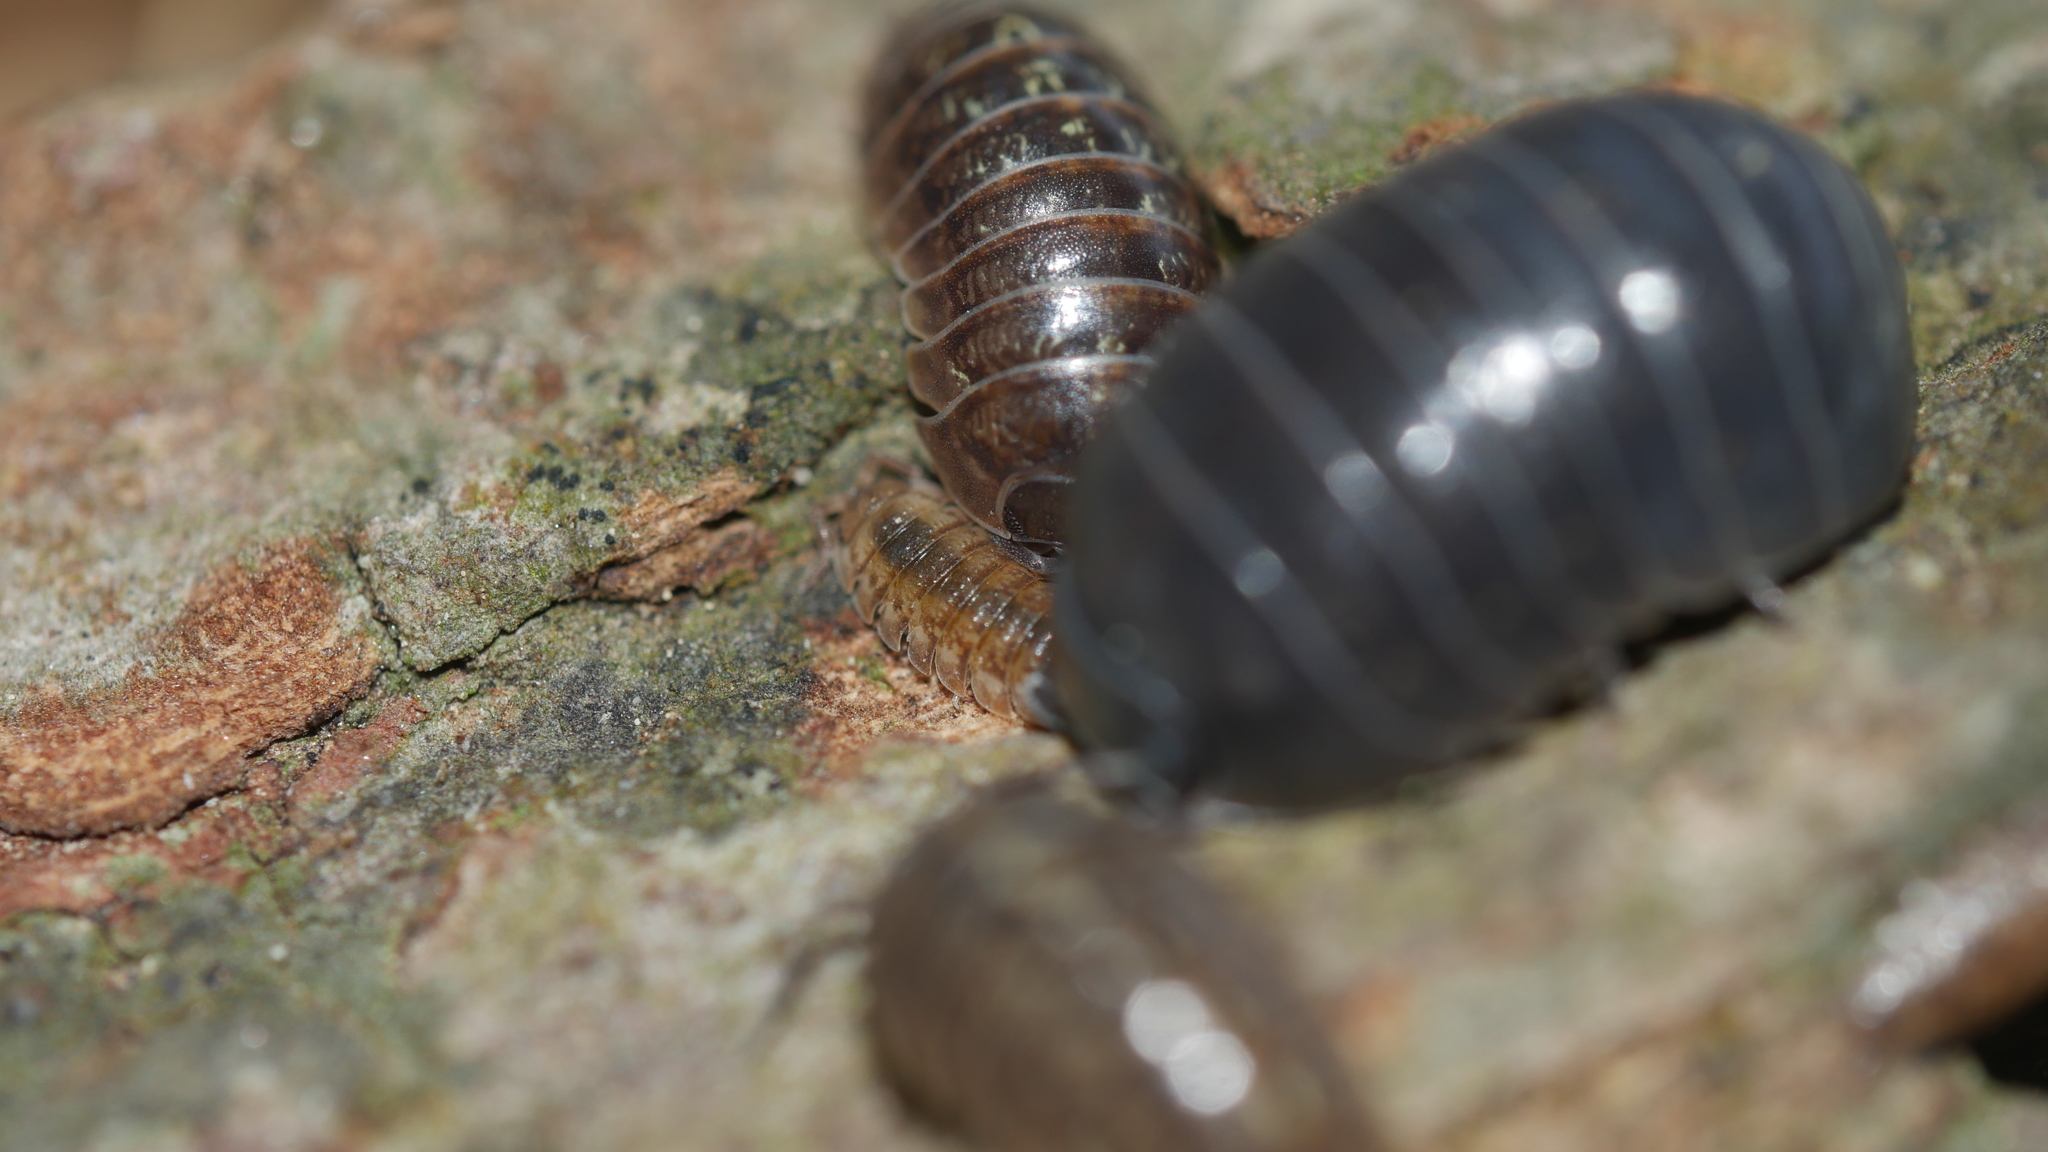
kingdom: Animalia
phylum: Arthropoda
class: Malacostraca
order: Isopoda
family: Porcellionidae
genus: Porcellio
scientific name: Porcellio scaber
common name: Common rough woodlouse
